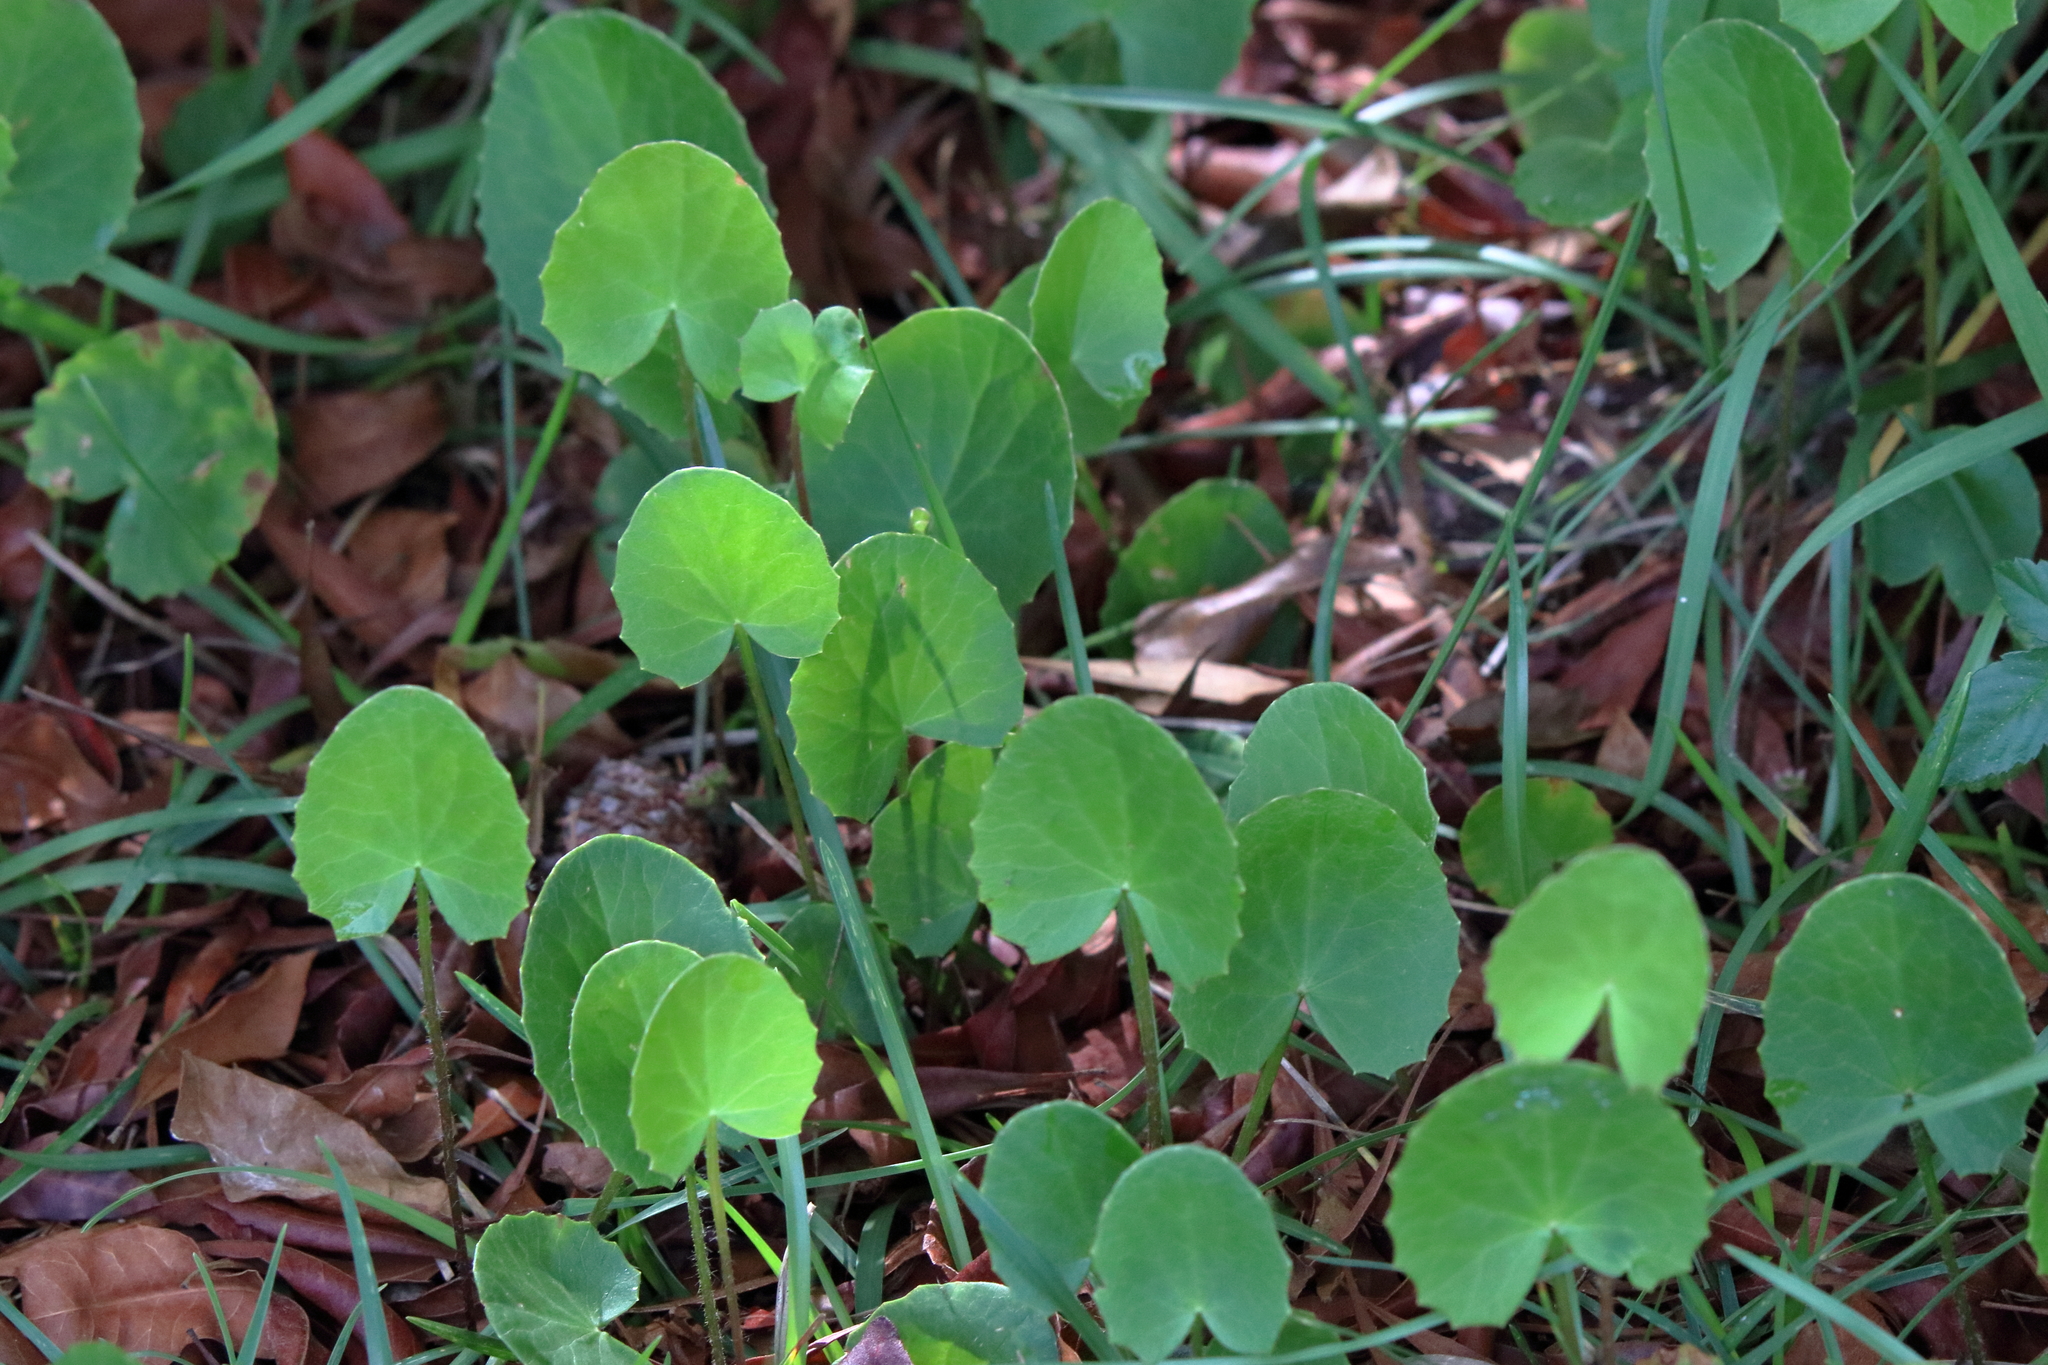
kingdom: Plantae
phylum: Tracheophyta
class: Magnoliopsida
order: Apiales
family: Apiaceae
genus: Centella
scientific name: Centella erecta
